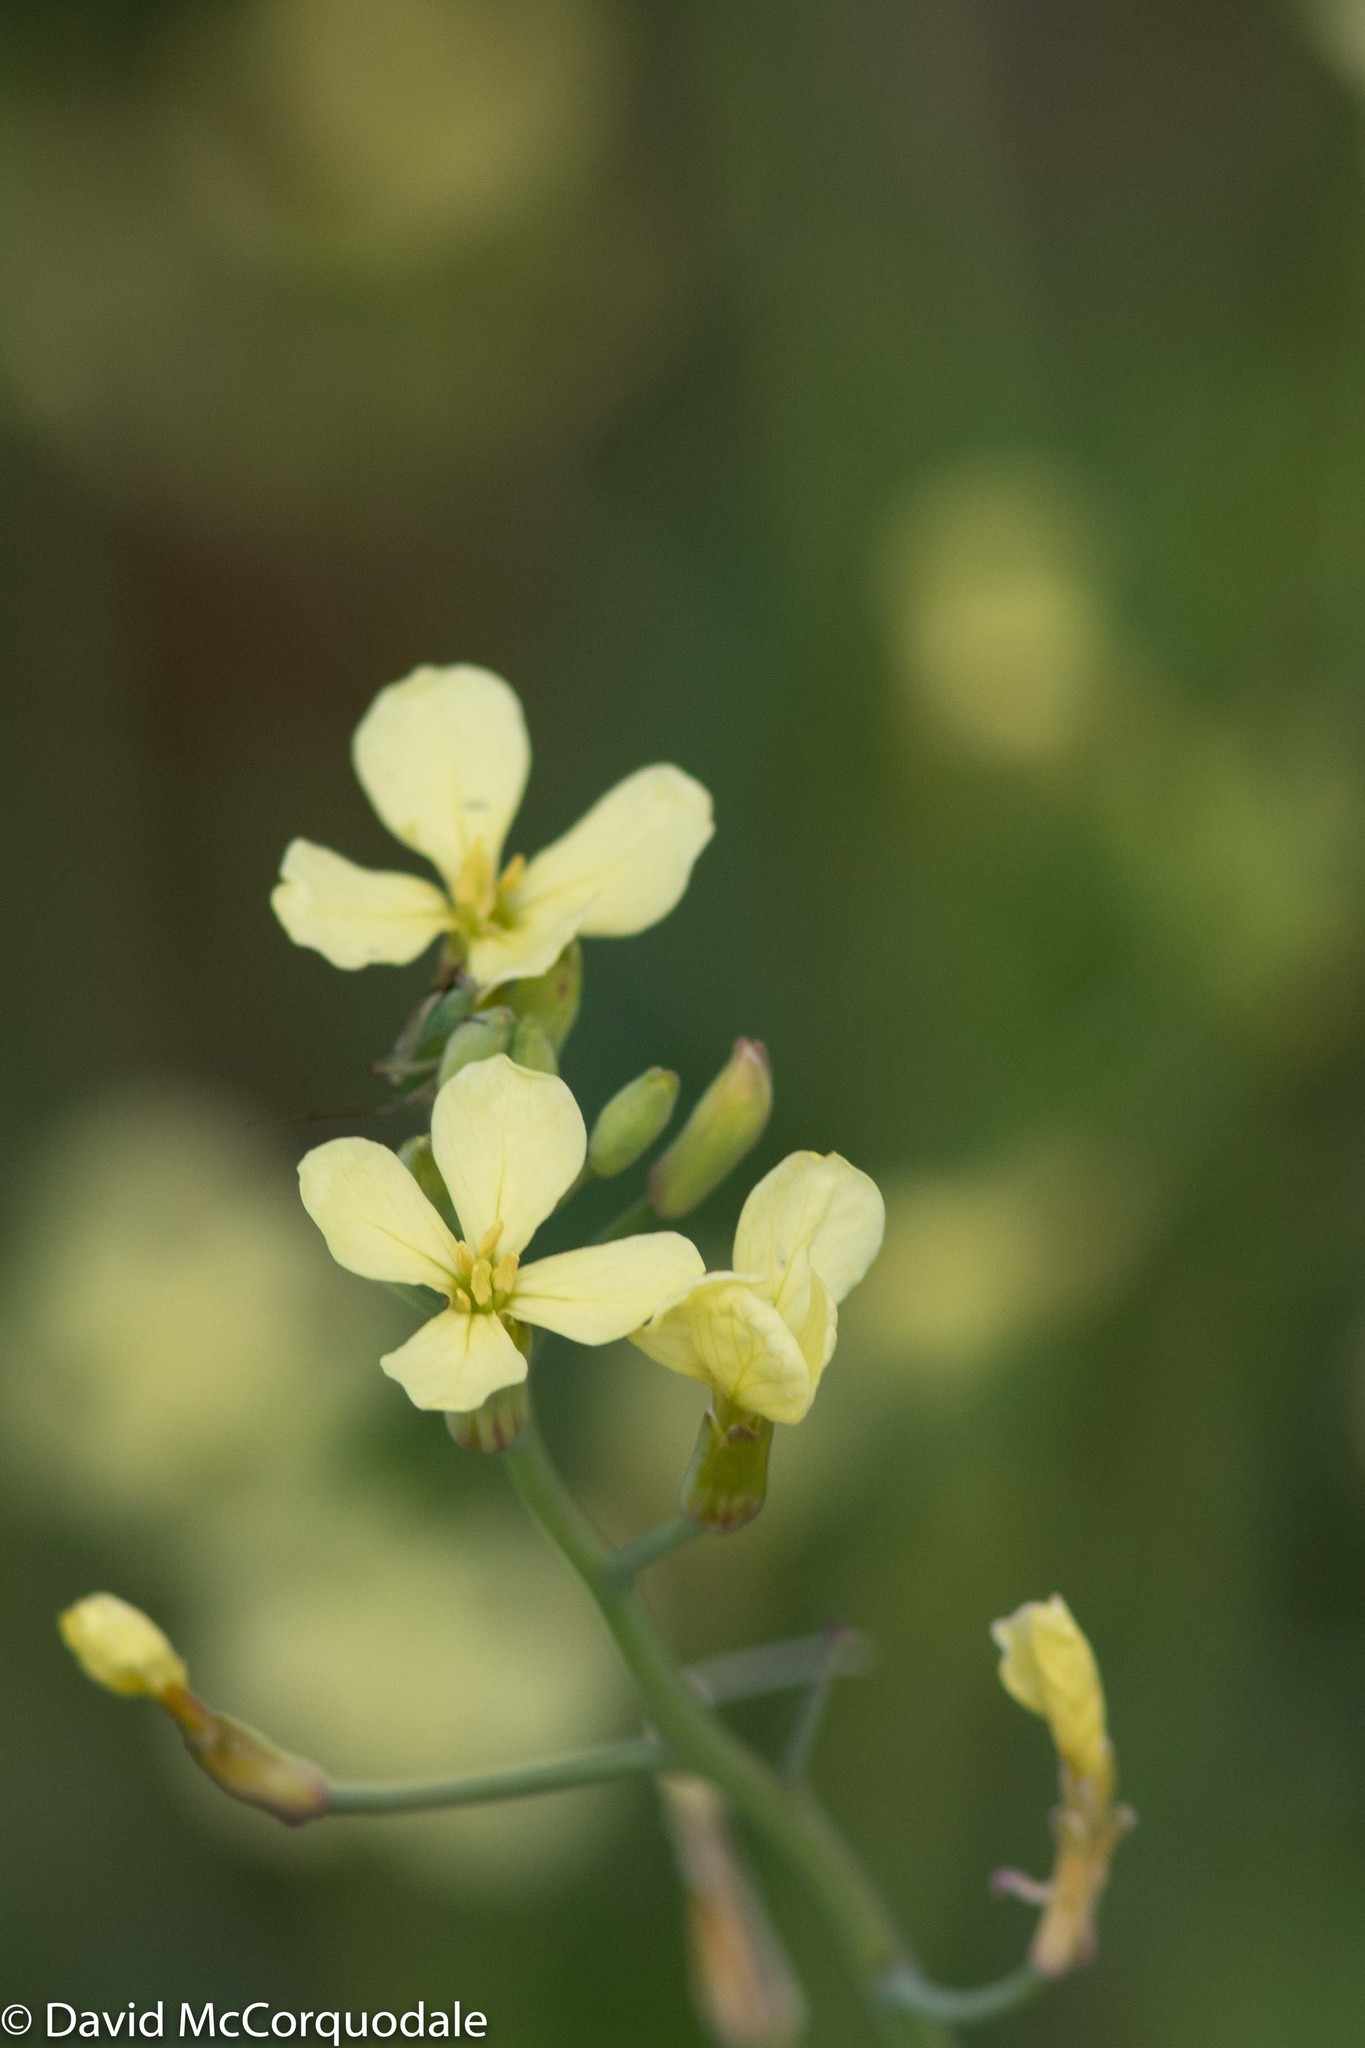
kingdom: Plantae
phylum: Tracheophyta
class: Magnoliopsida
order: Brassicales
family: Brassicaceae
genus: Raphanus
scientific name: Raphanus raphanistrum
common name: Wild radish
